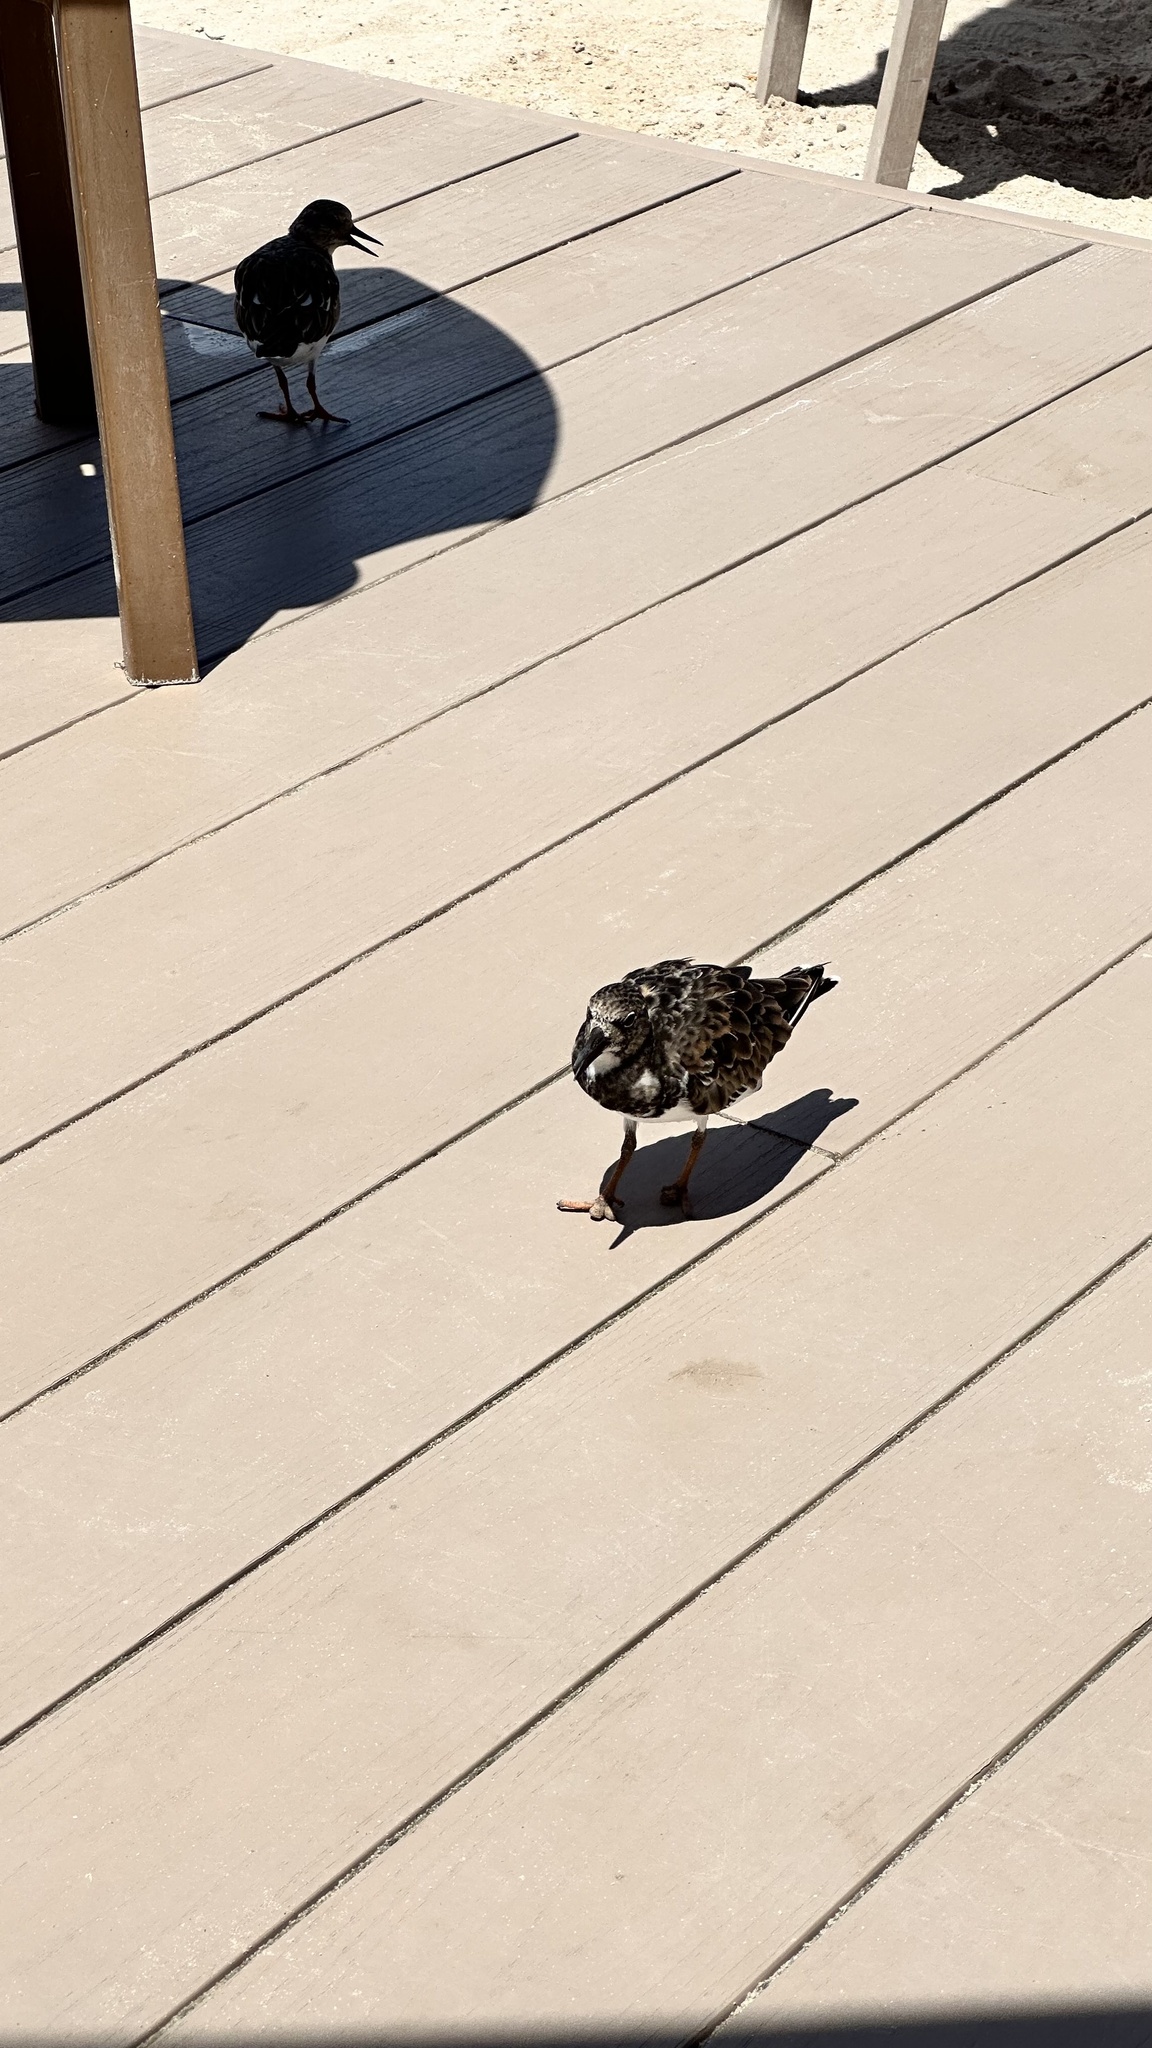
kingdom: Animalia
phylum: Chordata
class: Aves
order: Charadriiformes
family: Scolopacidae
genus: Arenaria
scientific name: Arenaria interpres
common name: Ruddy turnstone
